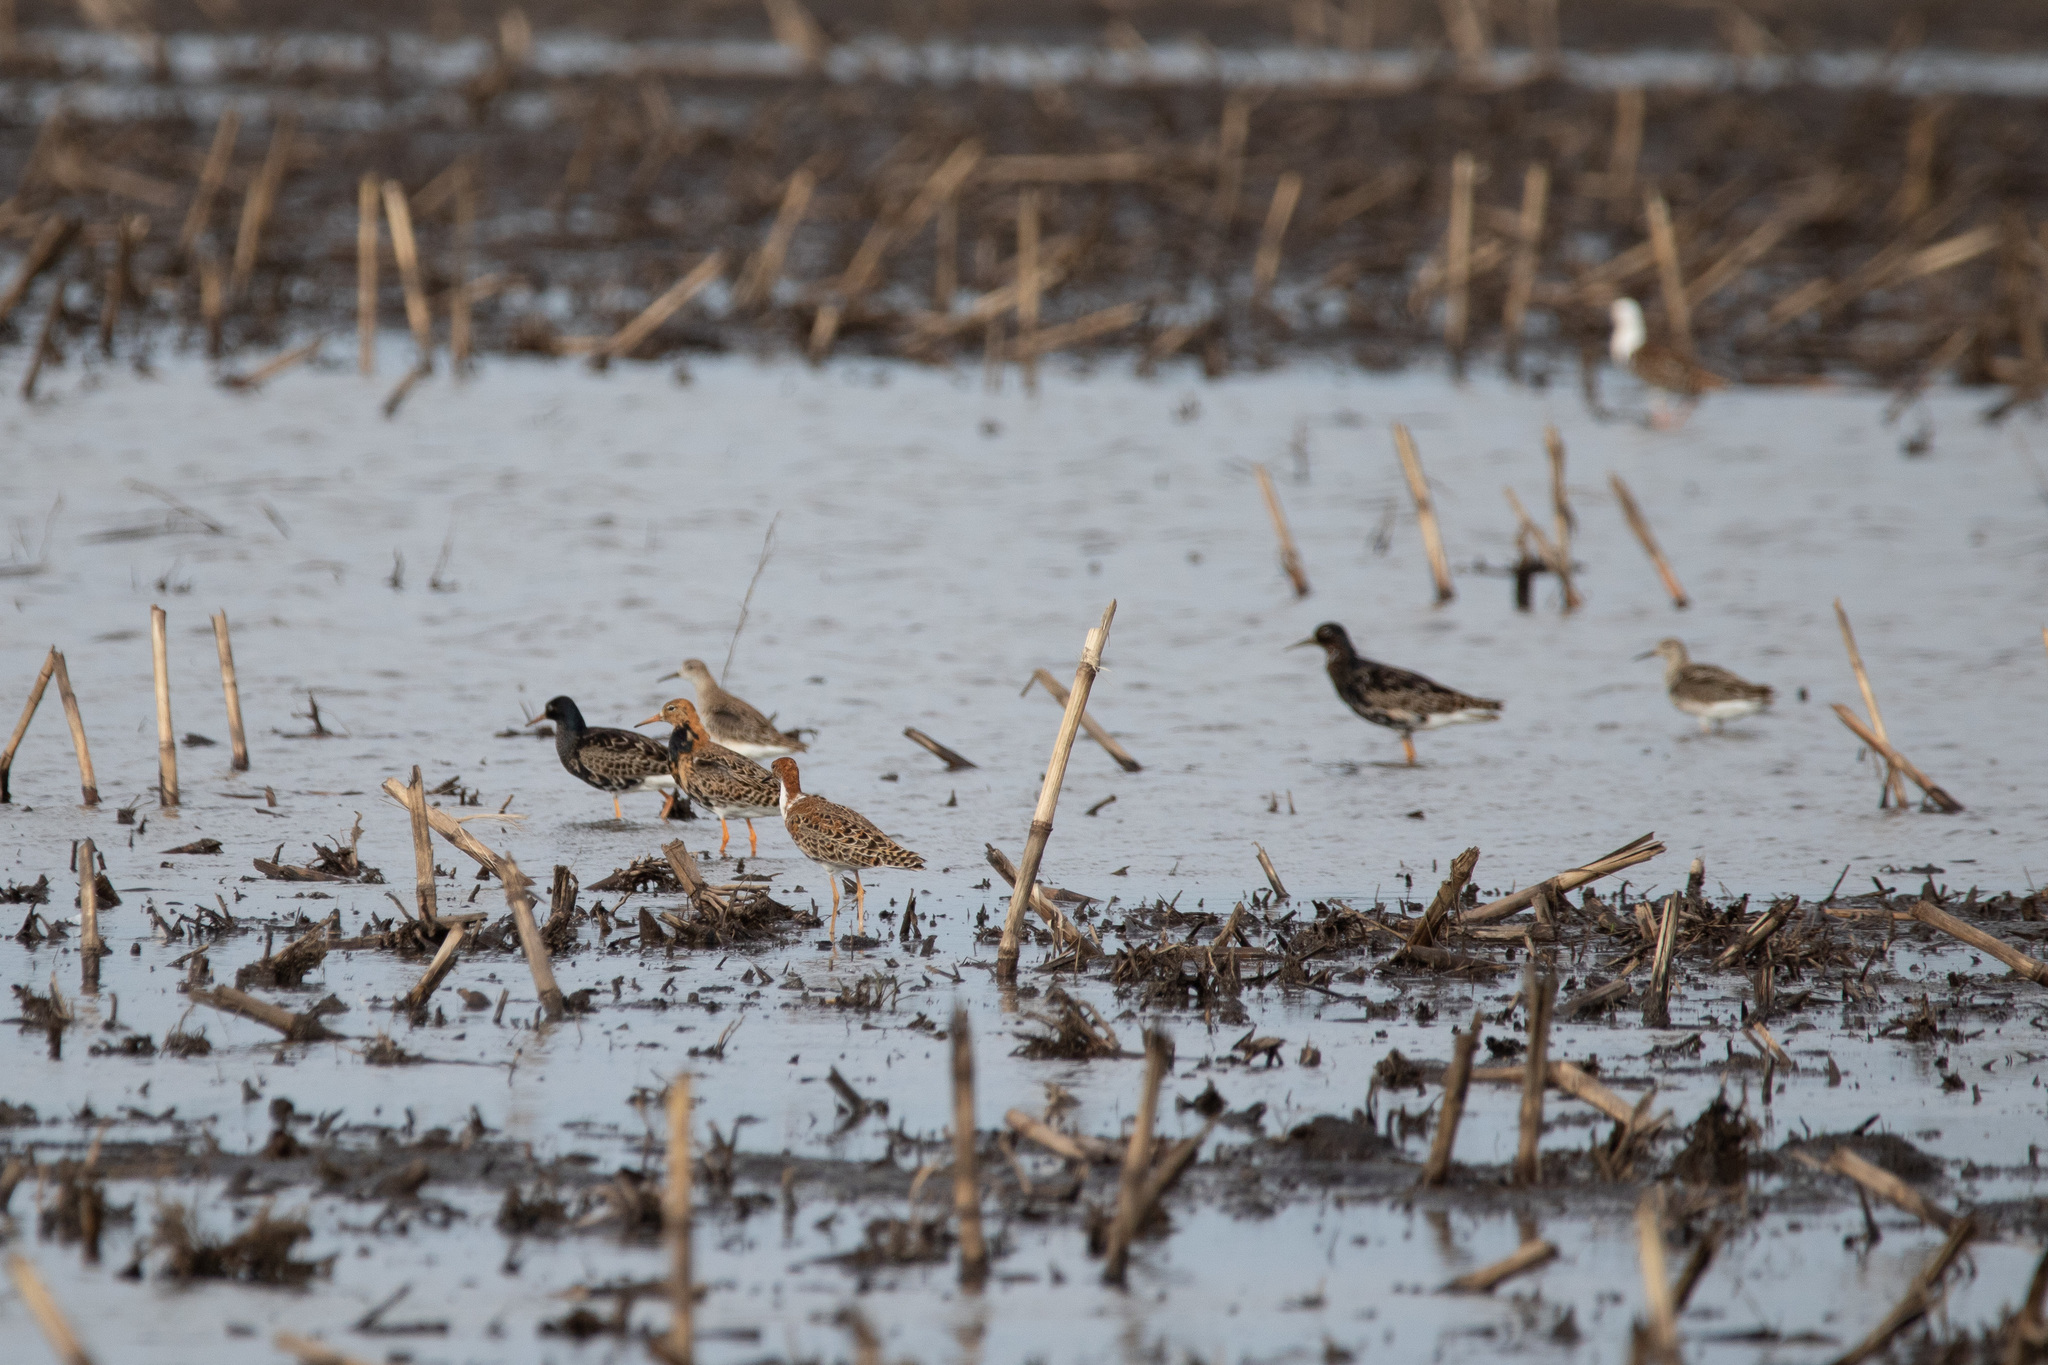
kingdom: Animalia
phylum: Chordata
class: Aves
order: Charadriiformes
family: Scolopacidae
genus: Calidris
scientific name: Calidris pugnax
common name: Ruff
